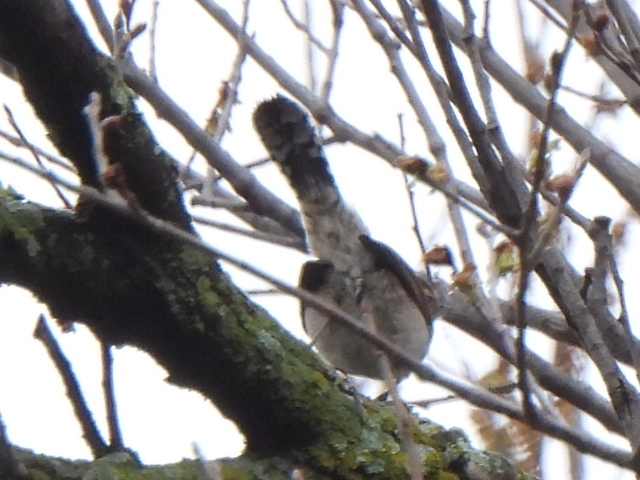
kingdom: Animalia
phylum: Chordata
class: Aves
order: Passeriformes
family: Troglodytidae
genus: Thryomanes
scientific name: Thryomanes bewickii
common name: Bewick's wren
